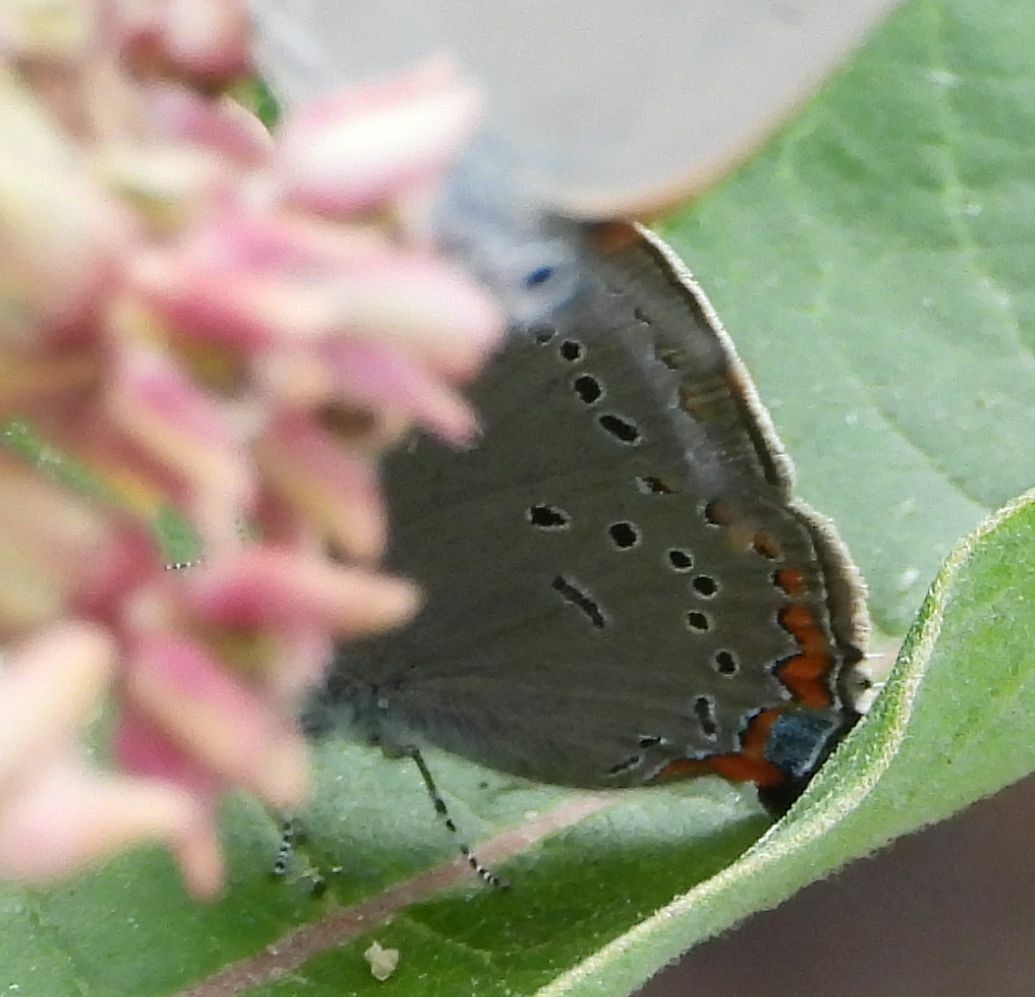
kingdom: Animalia
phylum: Arthropoda
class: Insecta
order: Lepidoptera
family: Lycaenidae
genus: Strymon
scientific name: Strymon acadica
